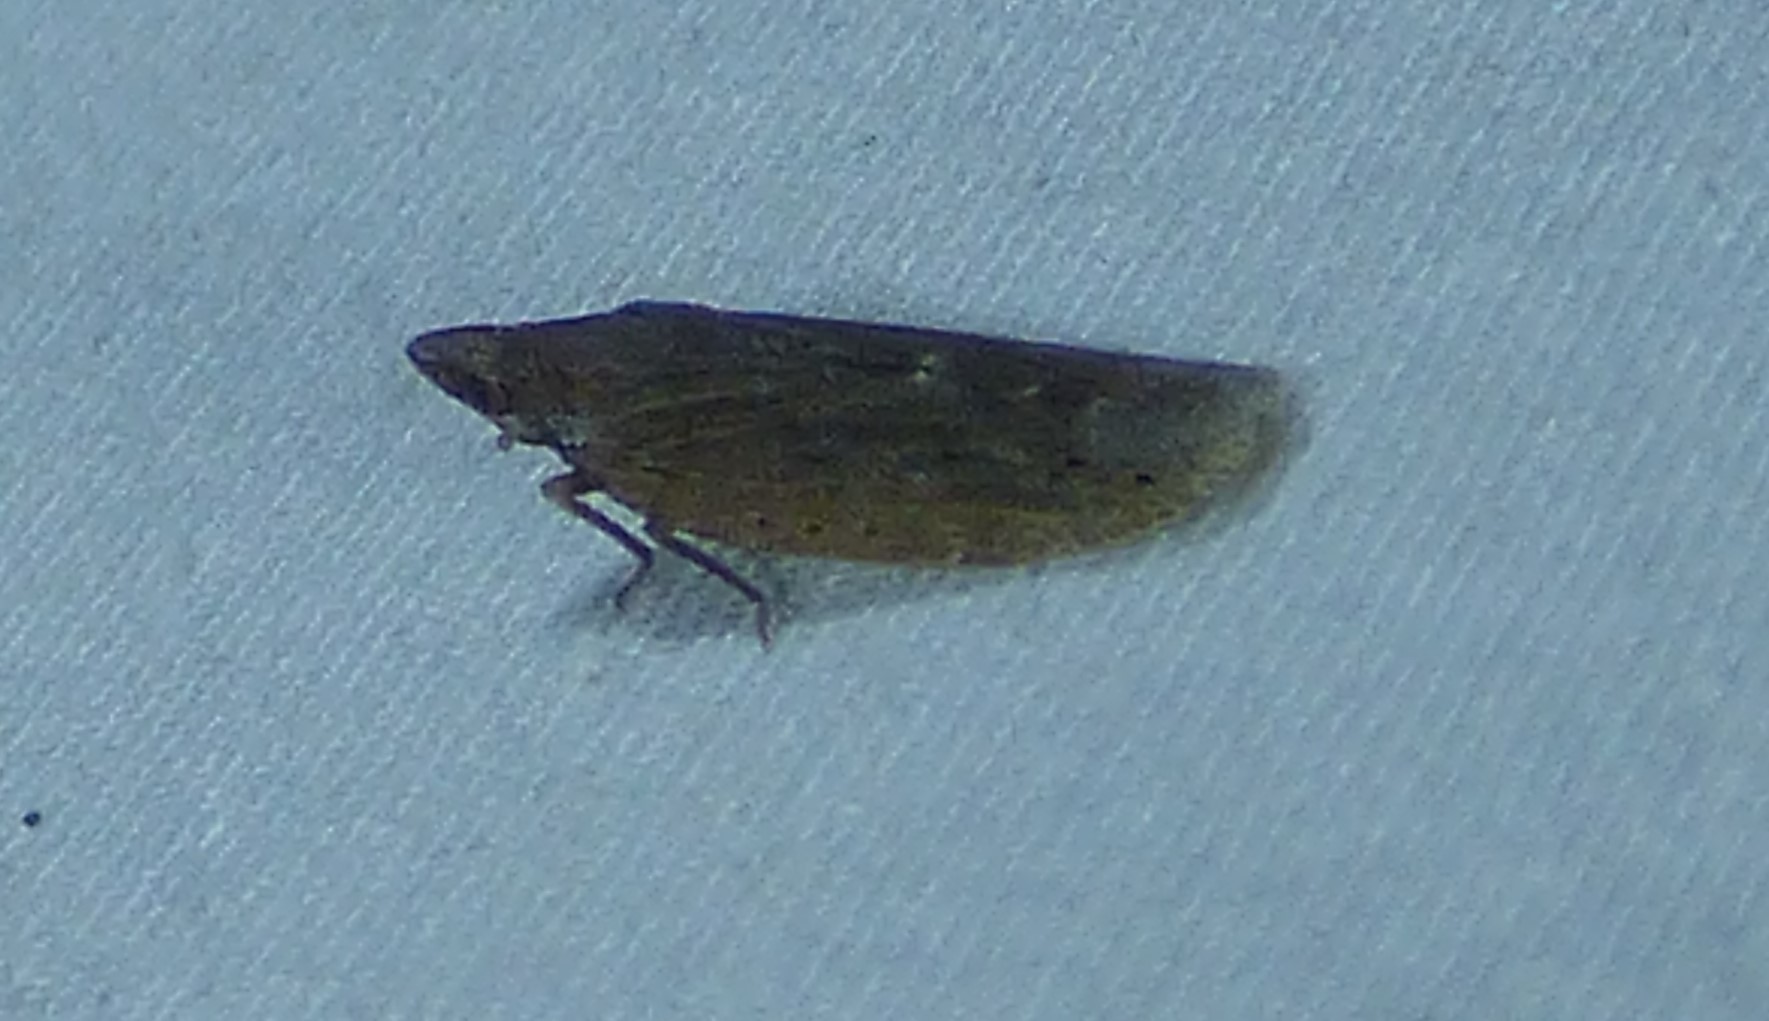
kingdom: Animalia
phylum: Arthropoda
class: Insecta
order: Hemiptera
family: Achilidae
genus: Cixidia
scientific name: Cixidia fusca
